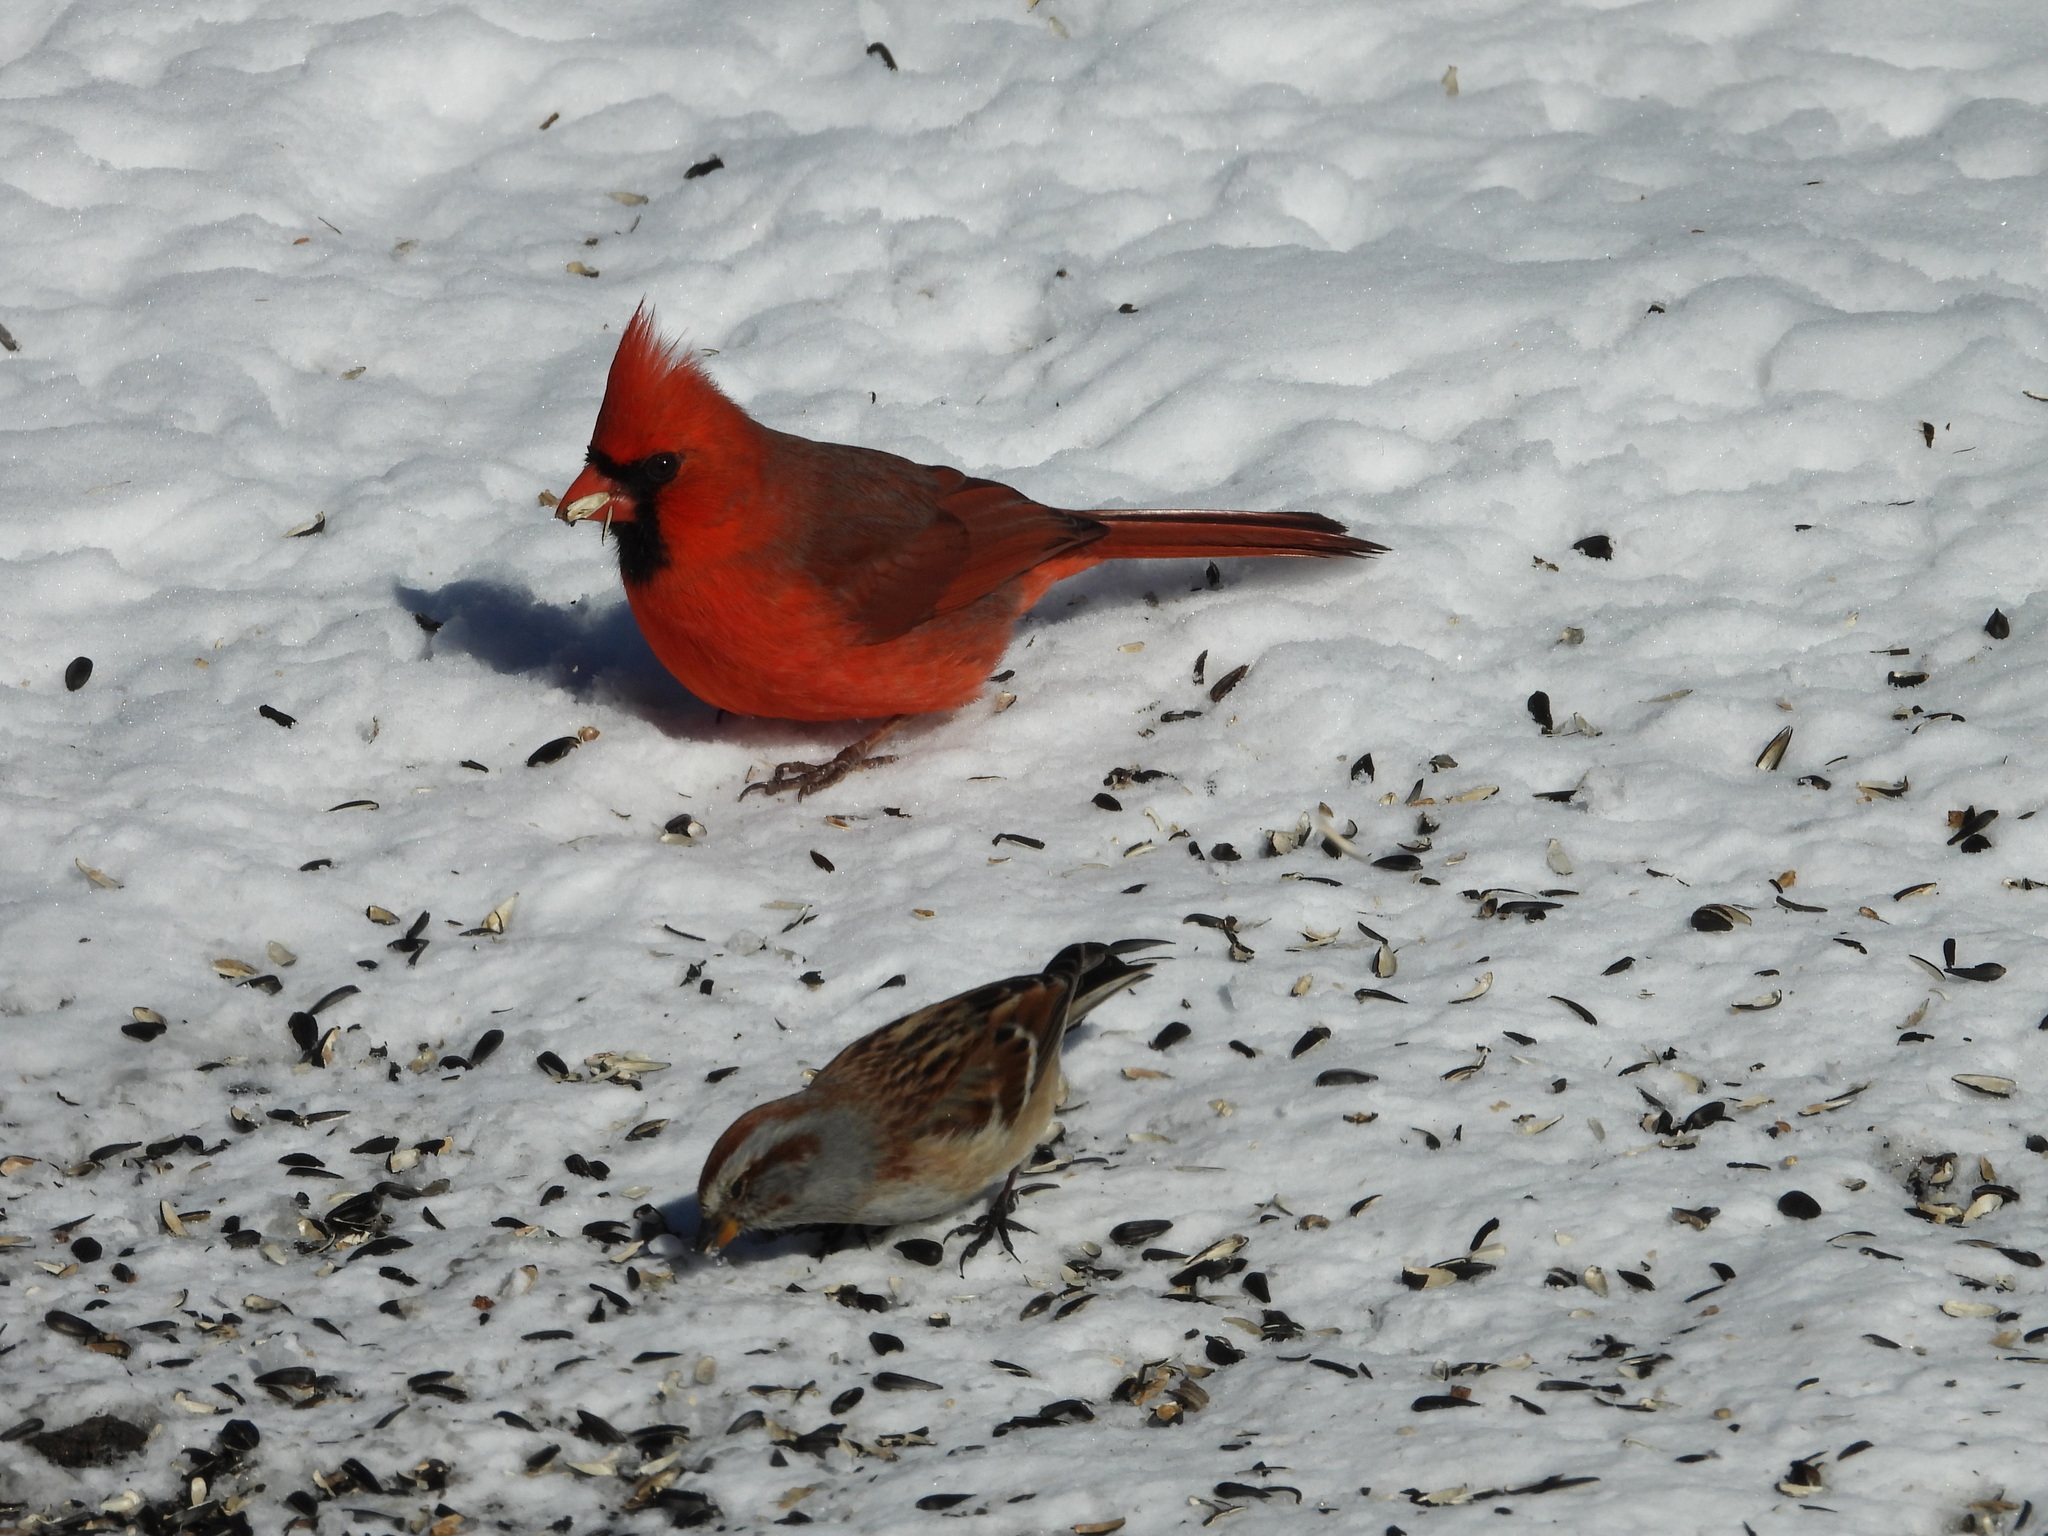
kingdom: Animalia
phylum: Chordata
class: Aves
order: Passeriformes
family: Cardinalidae
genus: Cardinalis
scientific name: Cardinalis cardinalis
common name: Northern cardinal
